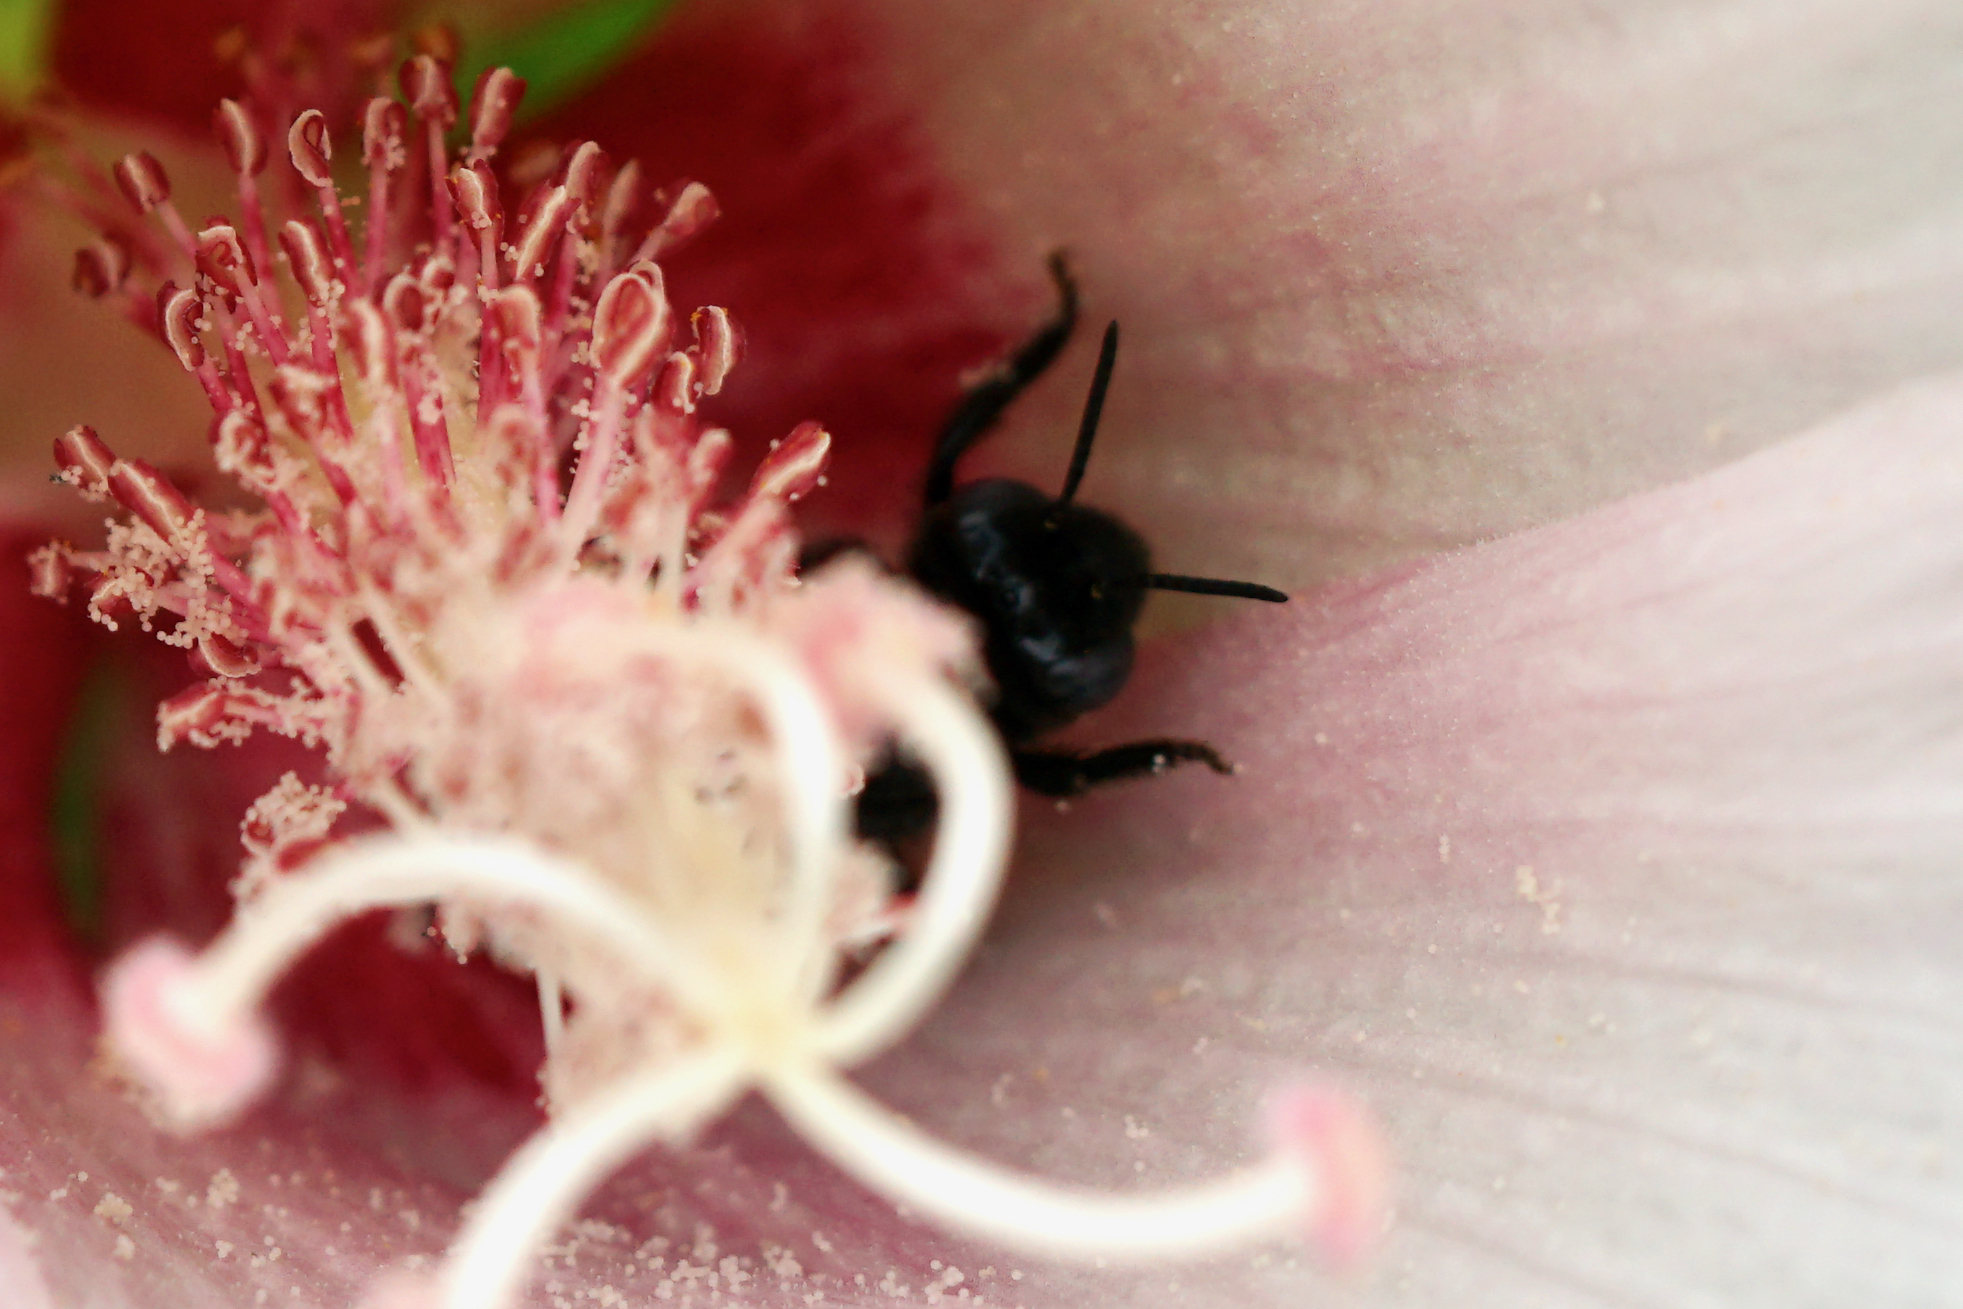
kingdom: Animalia
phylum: Arthropoda
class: Insecta
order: Hymenoptera
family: Apidae
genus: Melissodes
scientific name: Melissodes bimaculatus
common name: Two-spotted long-horned bee
